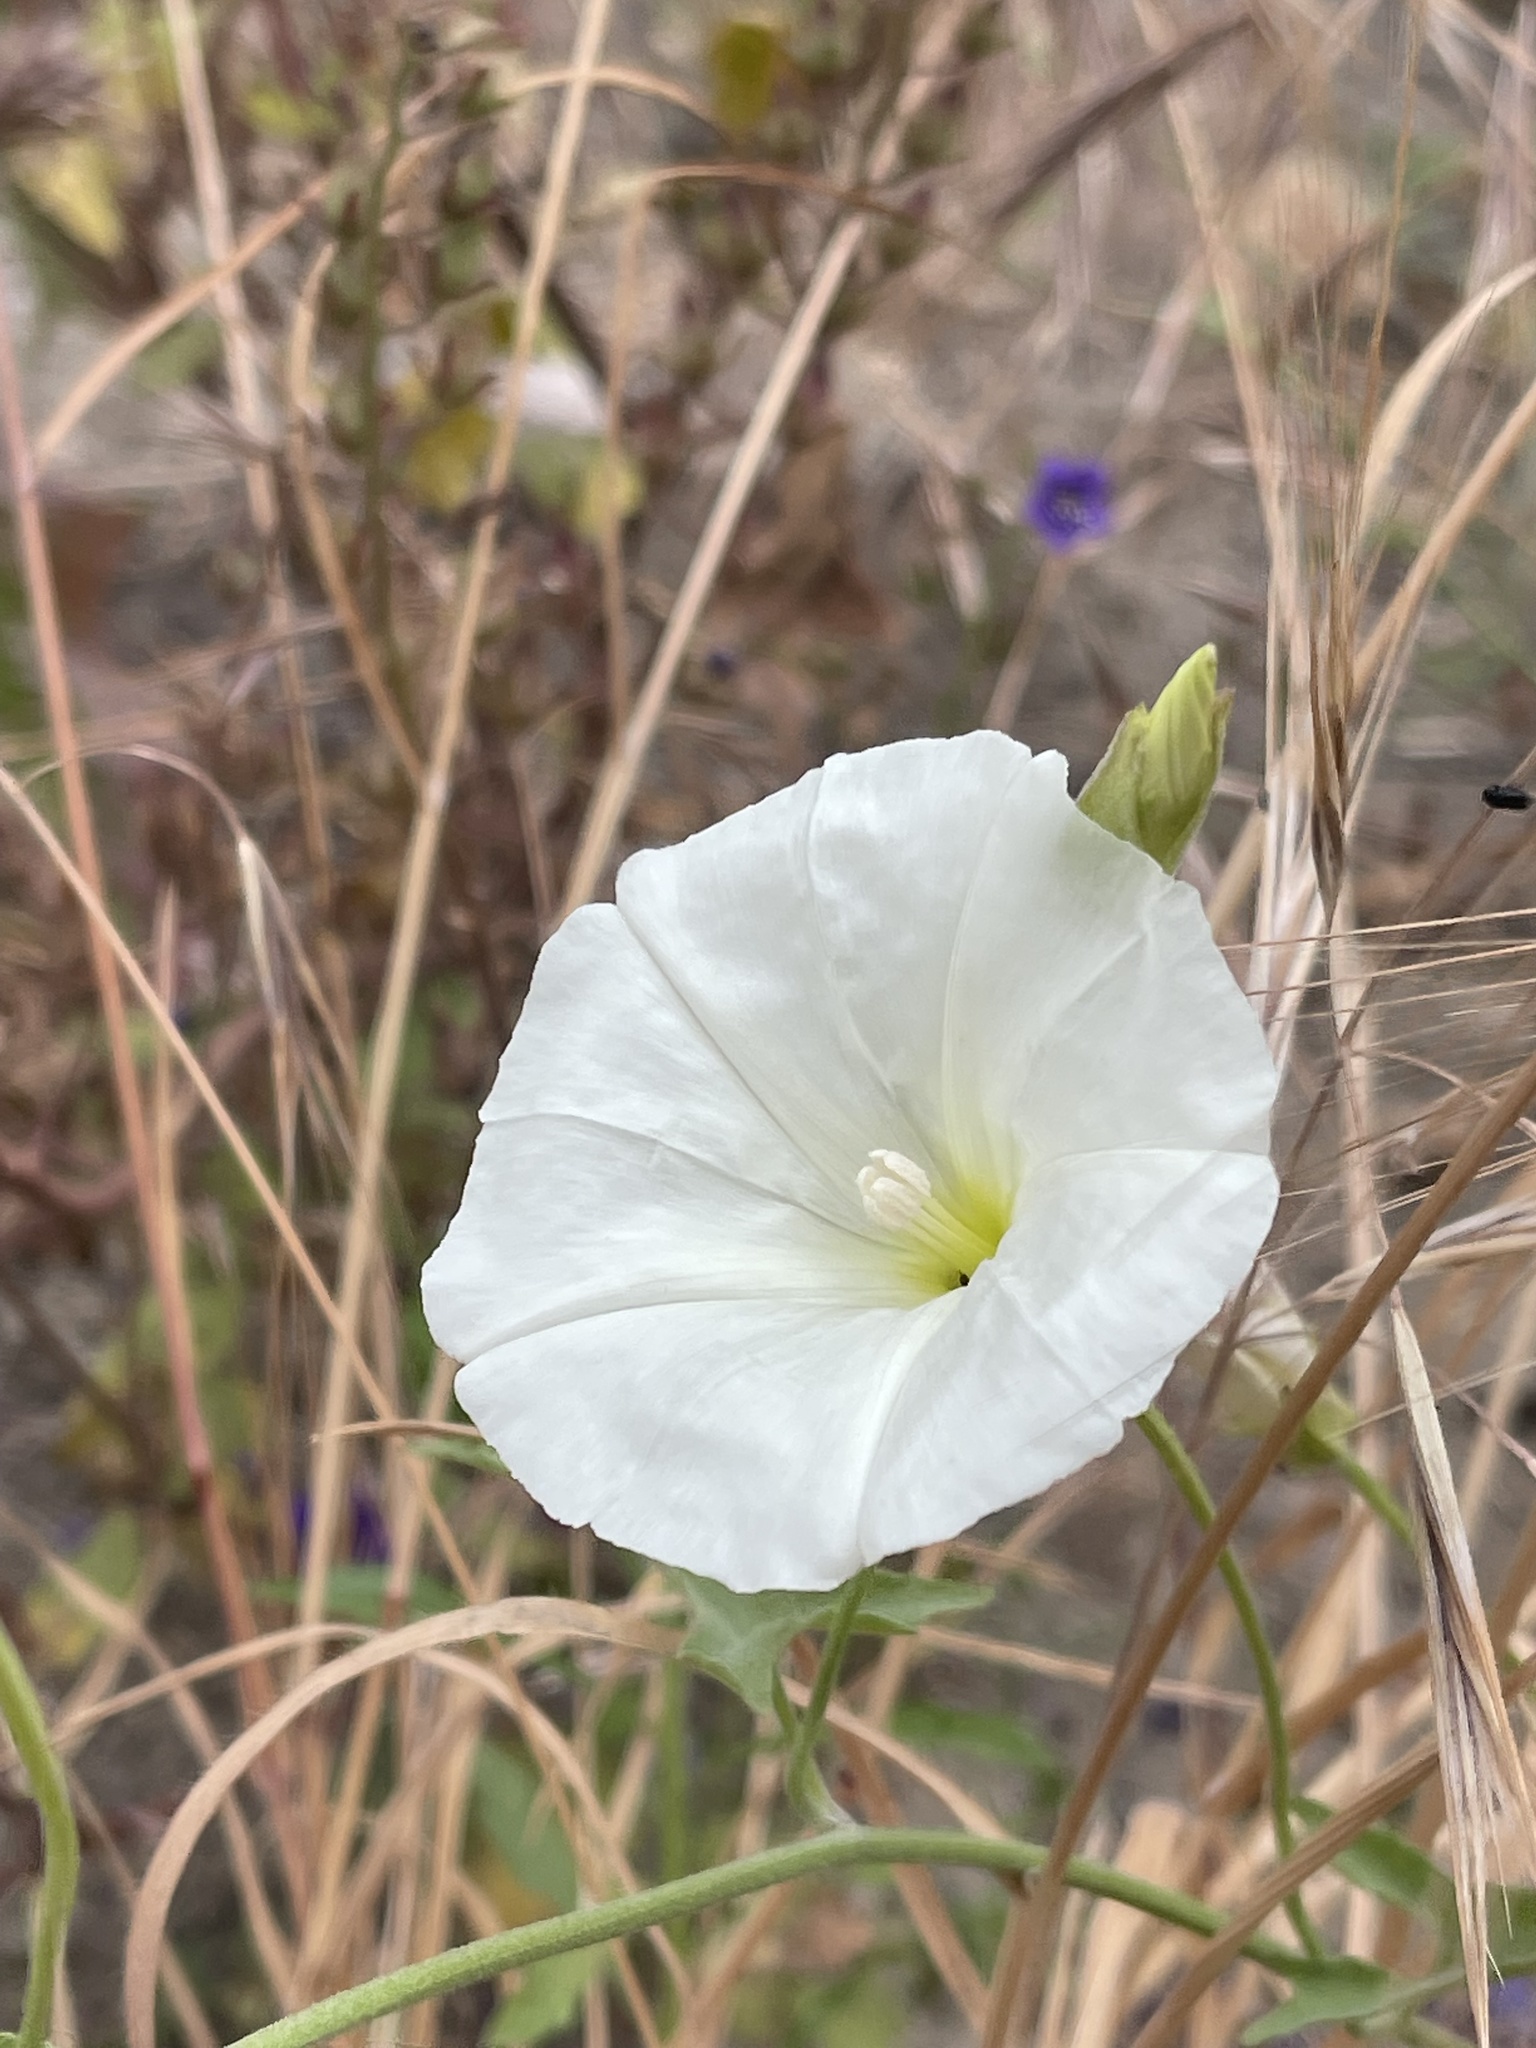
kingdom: Plantae
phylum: Tracheophyta
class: Magnoliopsida
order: Solanales
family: Convolvulaceae
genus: Calystegia
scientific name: Calystegia macrostegia
